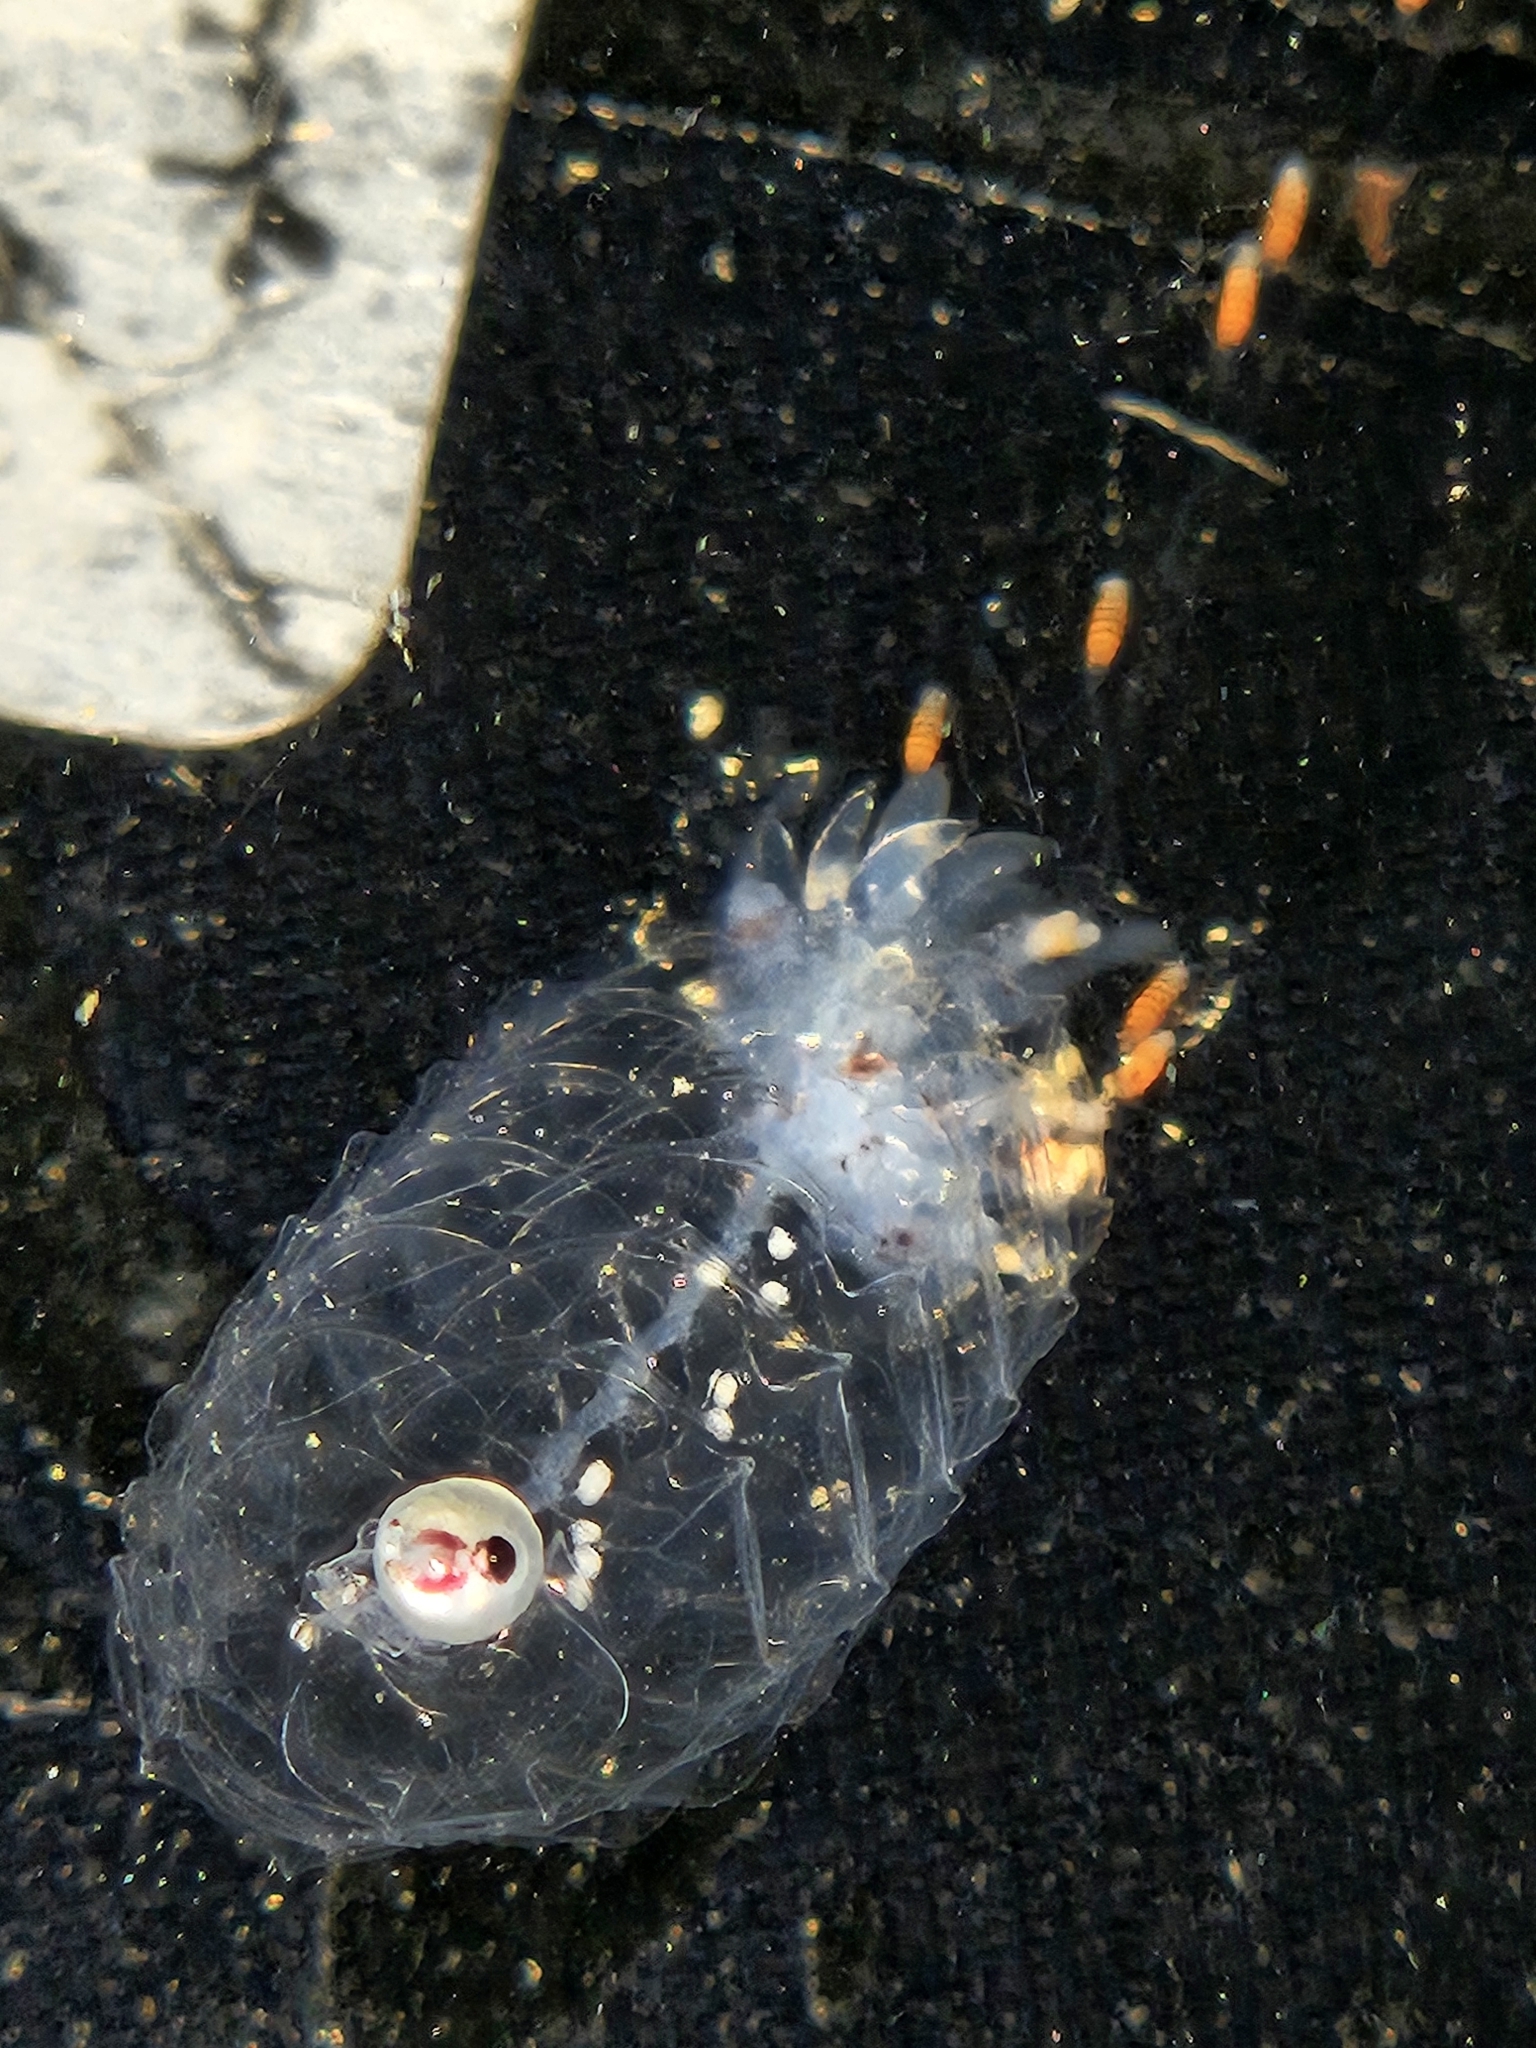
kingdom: Animalia
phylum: Cnidaria
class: Hydrozoa
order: Siphonophorae
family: Agalmatidae
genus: Nanomia
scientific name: Nanomia bijuga
